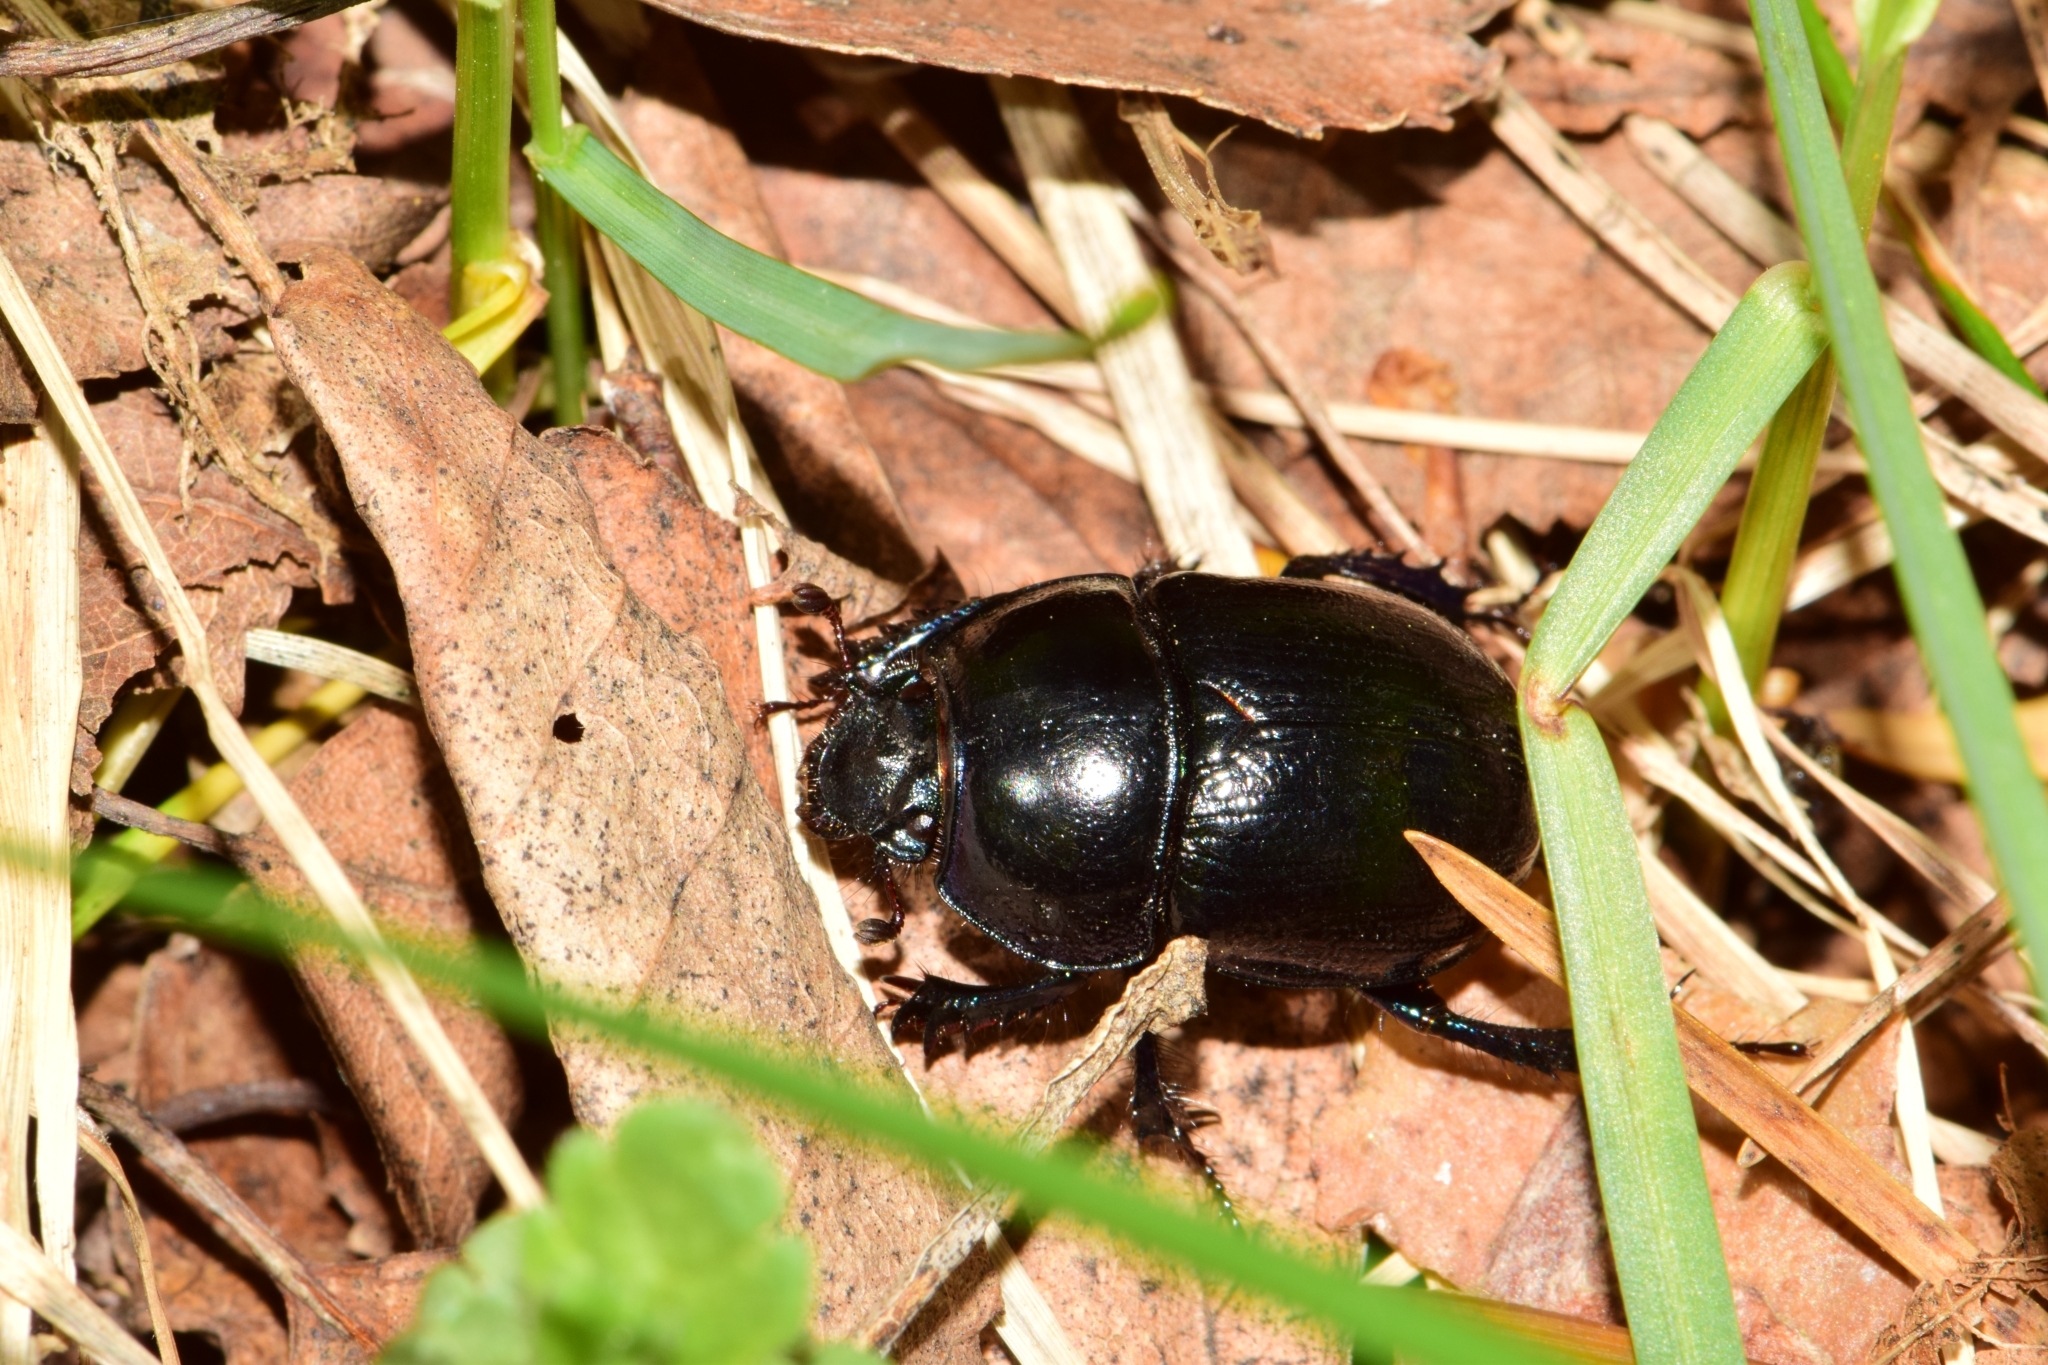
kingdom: Animalia
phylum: Arthropoda
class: Insecta
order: Coleoptera
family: Geotrupidae
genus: Anoplotrupes
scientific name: Anoplotrupes stercorosus
